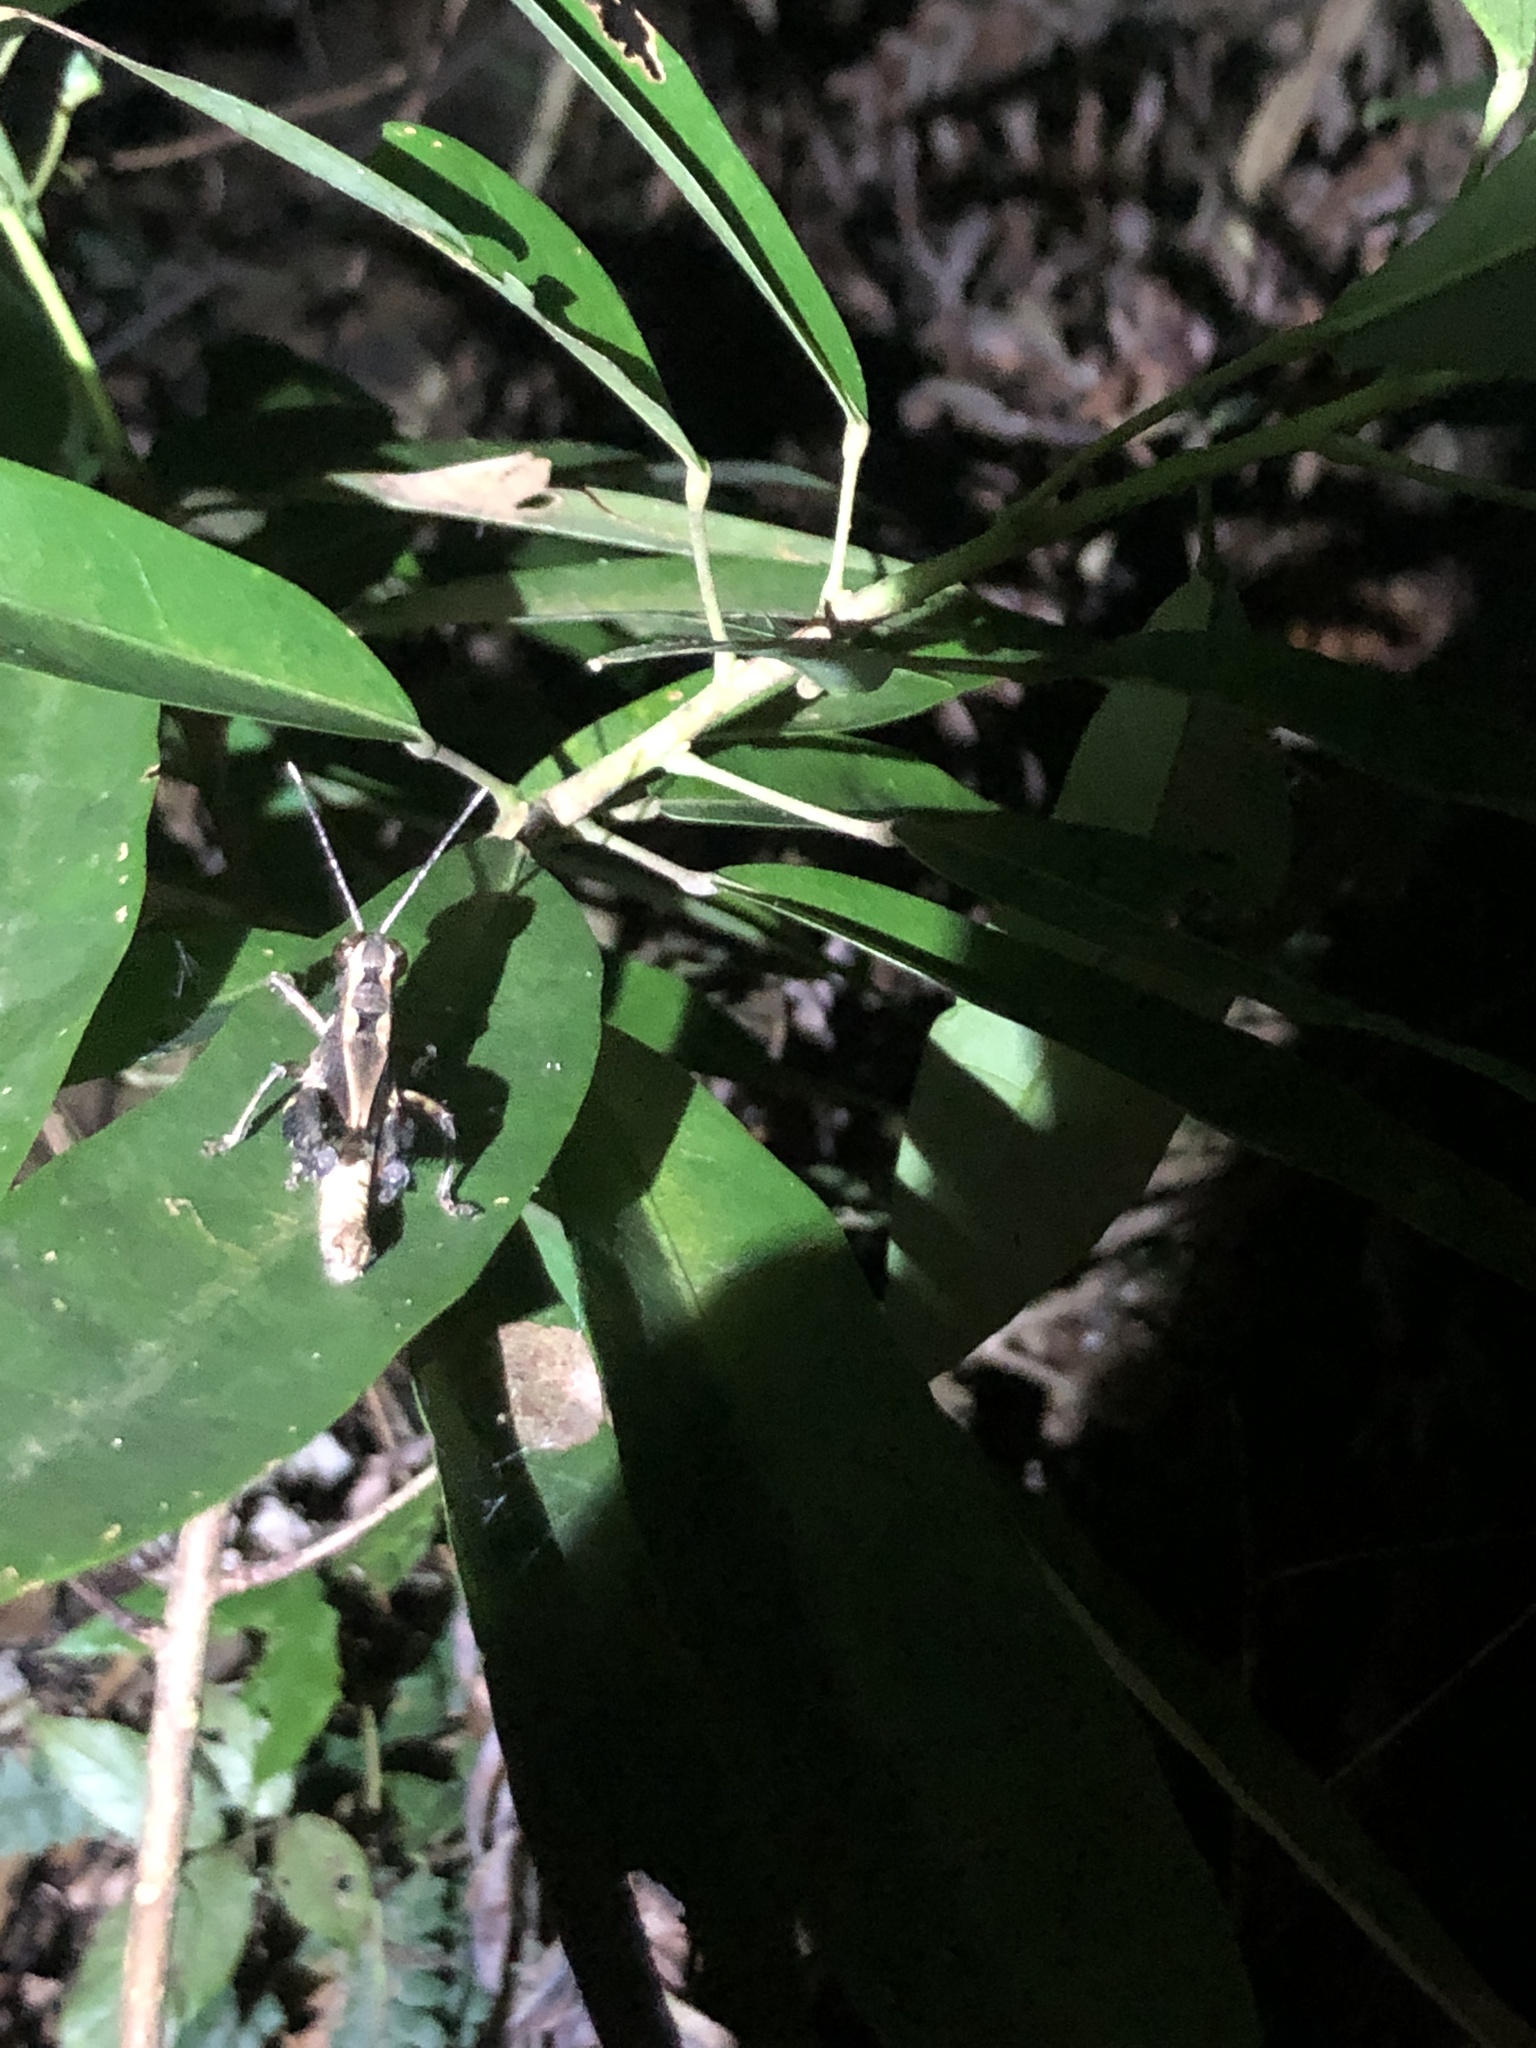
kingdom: Animalia
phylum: Arthropoda
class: Insecta
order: Orthoptera
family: Acrididae
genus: Traulia
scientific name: Traulia ornata
